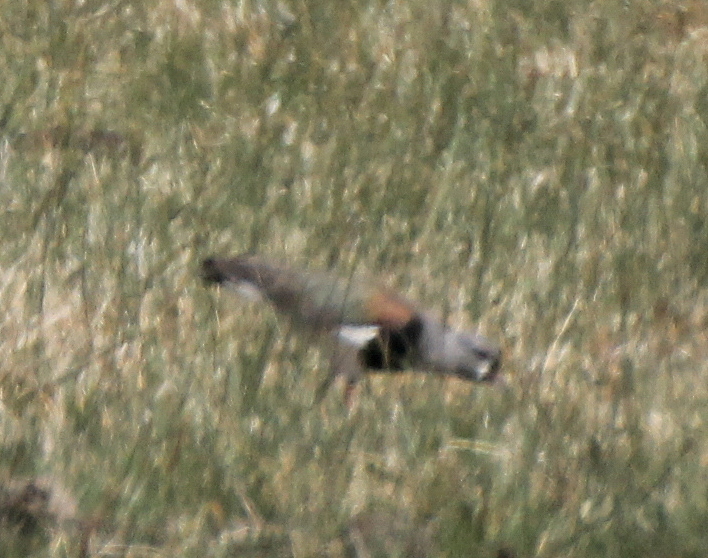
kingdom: Animalia
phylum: Chordata
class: Aves
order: Charadriiformes
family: Charadriidae
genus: Vanellus
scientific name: Vanellus chilensis
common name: Southern lapwing
